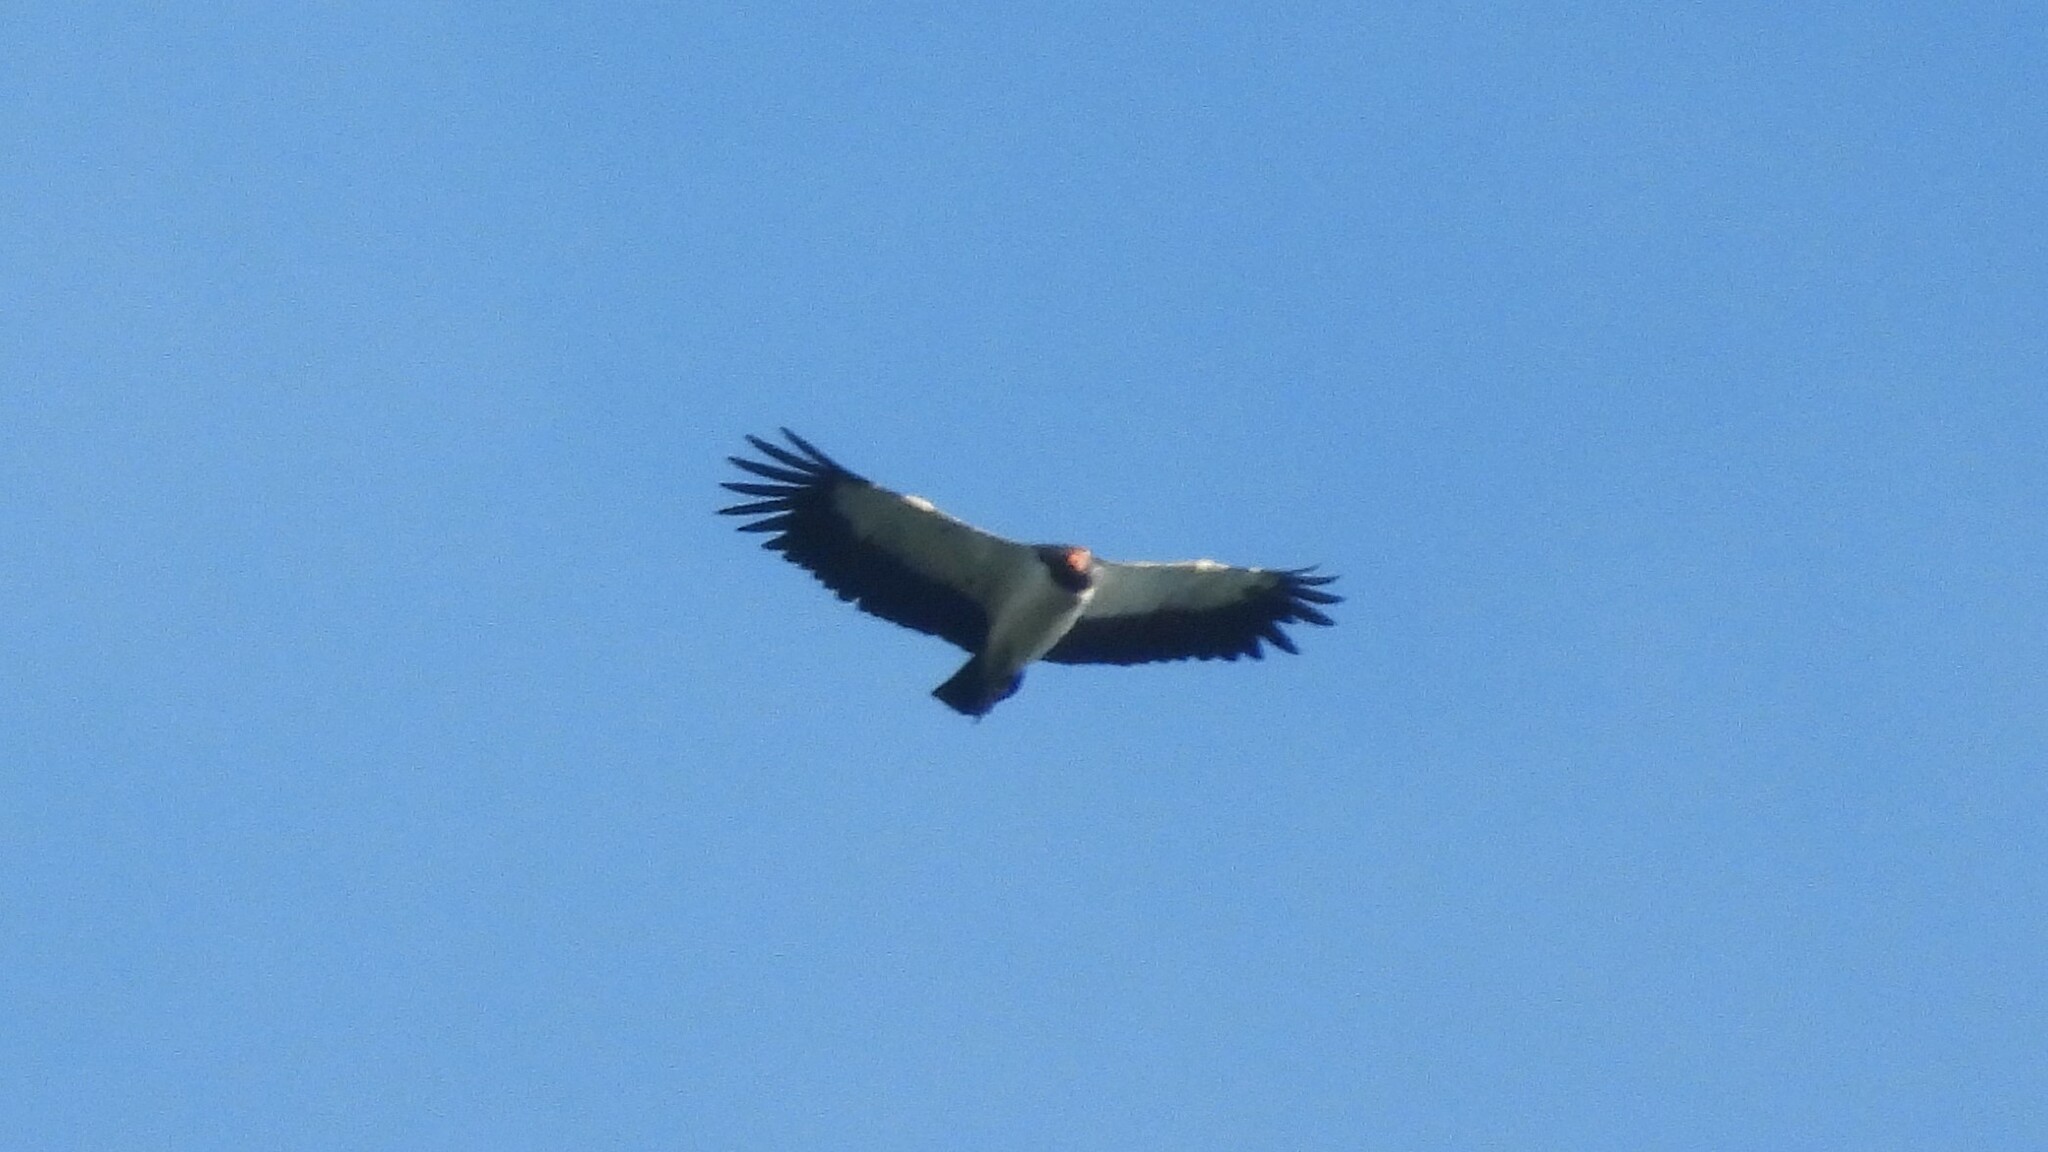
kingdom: Animalia
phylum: Chordata
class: Aves
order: Accipitriformes
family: Cathartidae
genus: Sarcoramphus
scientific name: Sarcoramphus papa
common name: King vulture
